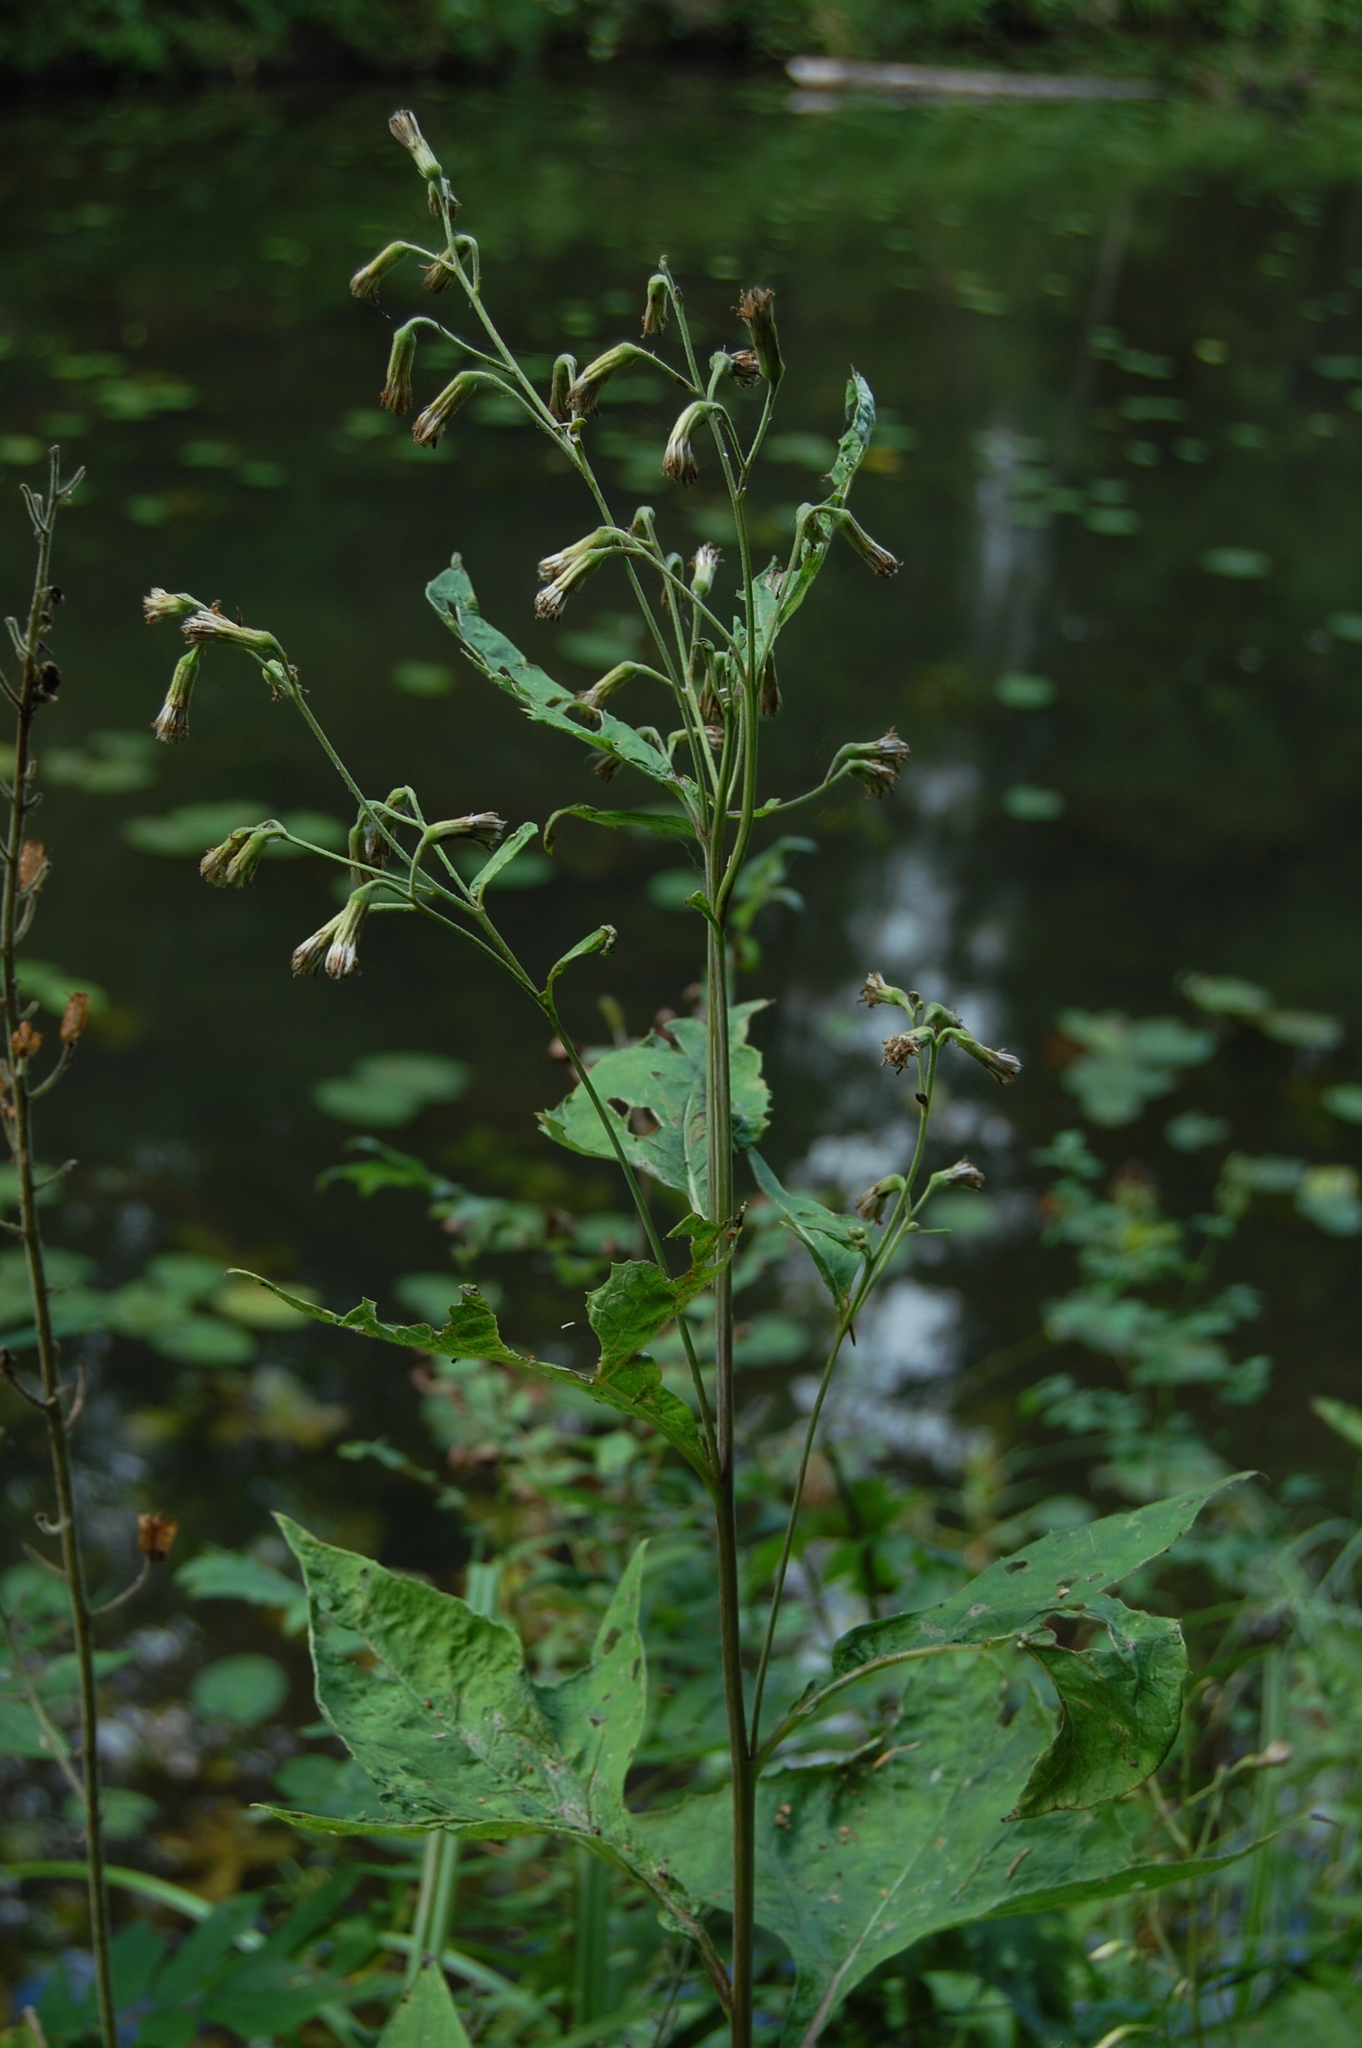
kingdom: Plantae
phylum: Tracheophyta
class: Magnoliopsida
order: Asterales
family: Asteraceae
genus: Parasenecio
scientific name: Parasenecio hastatus
